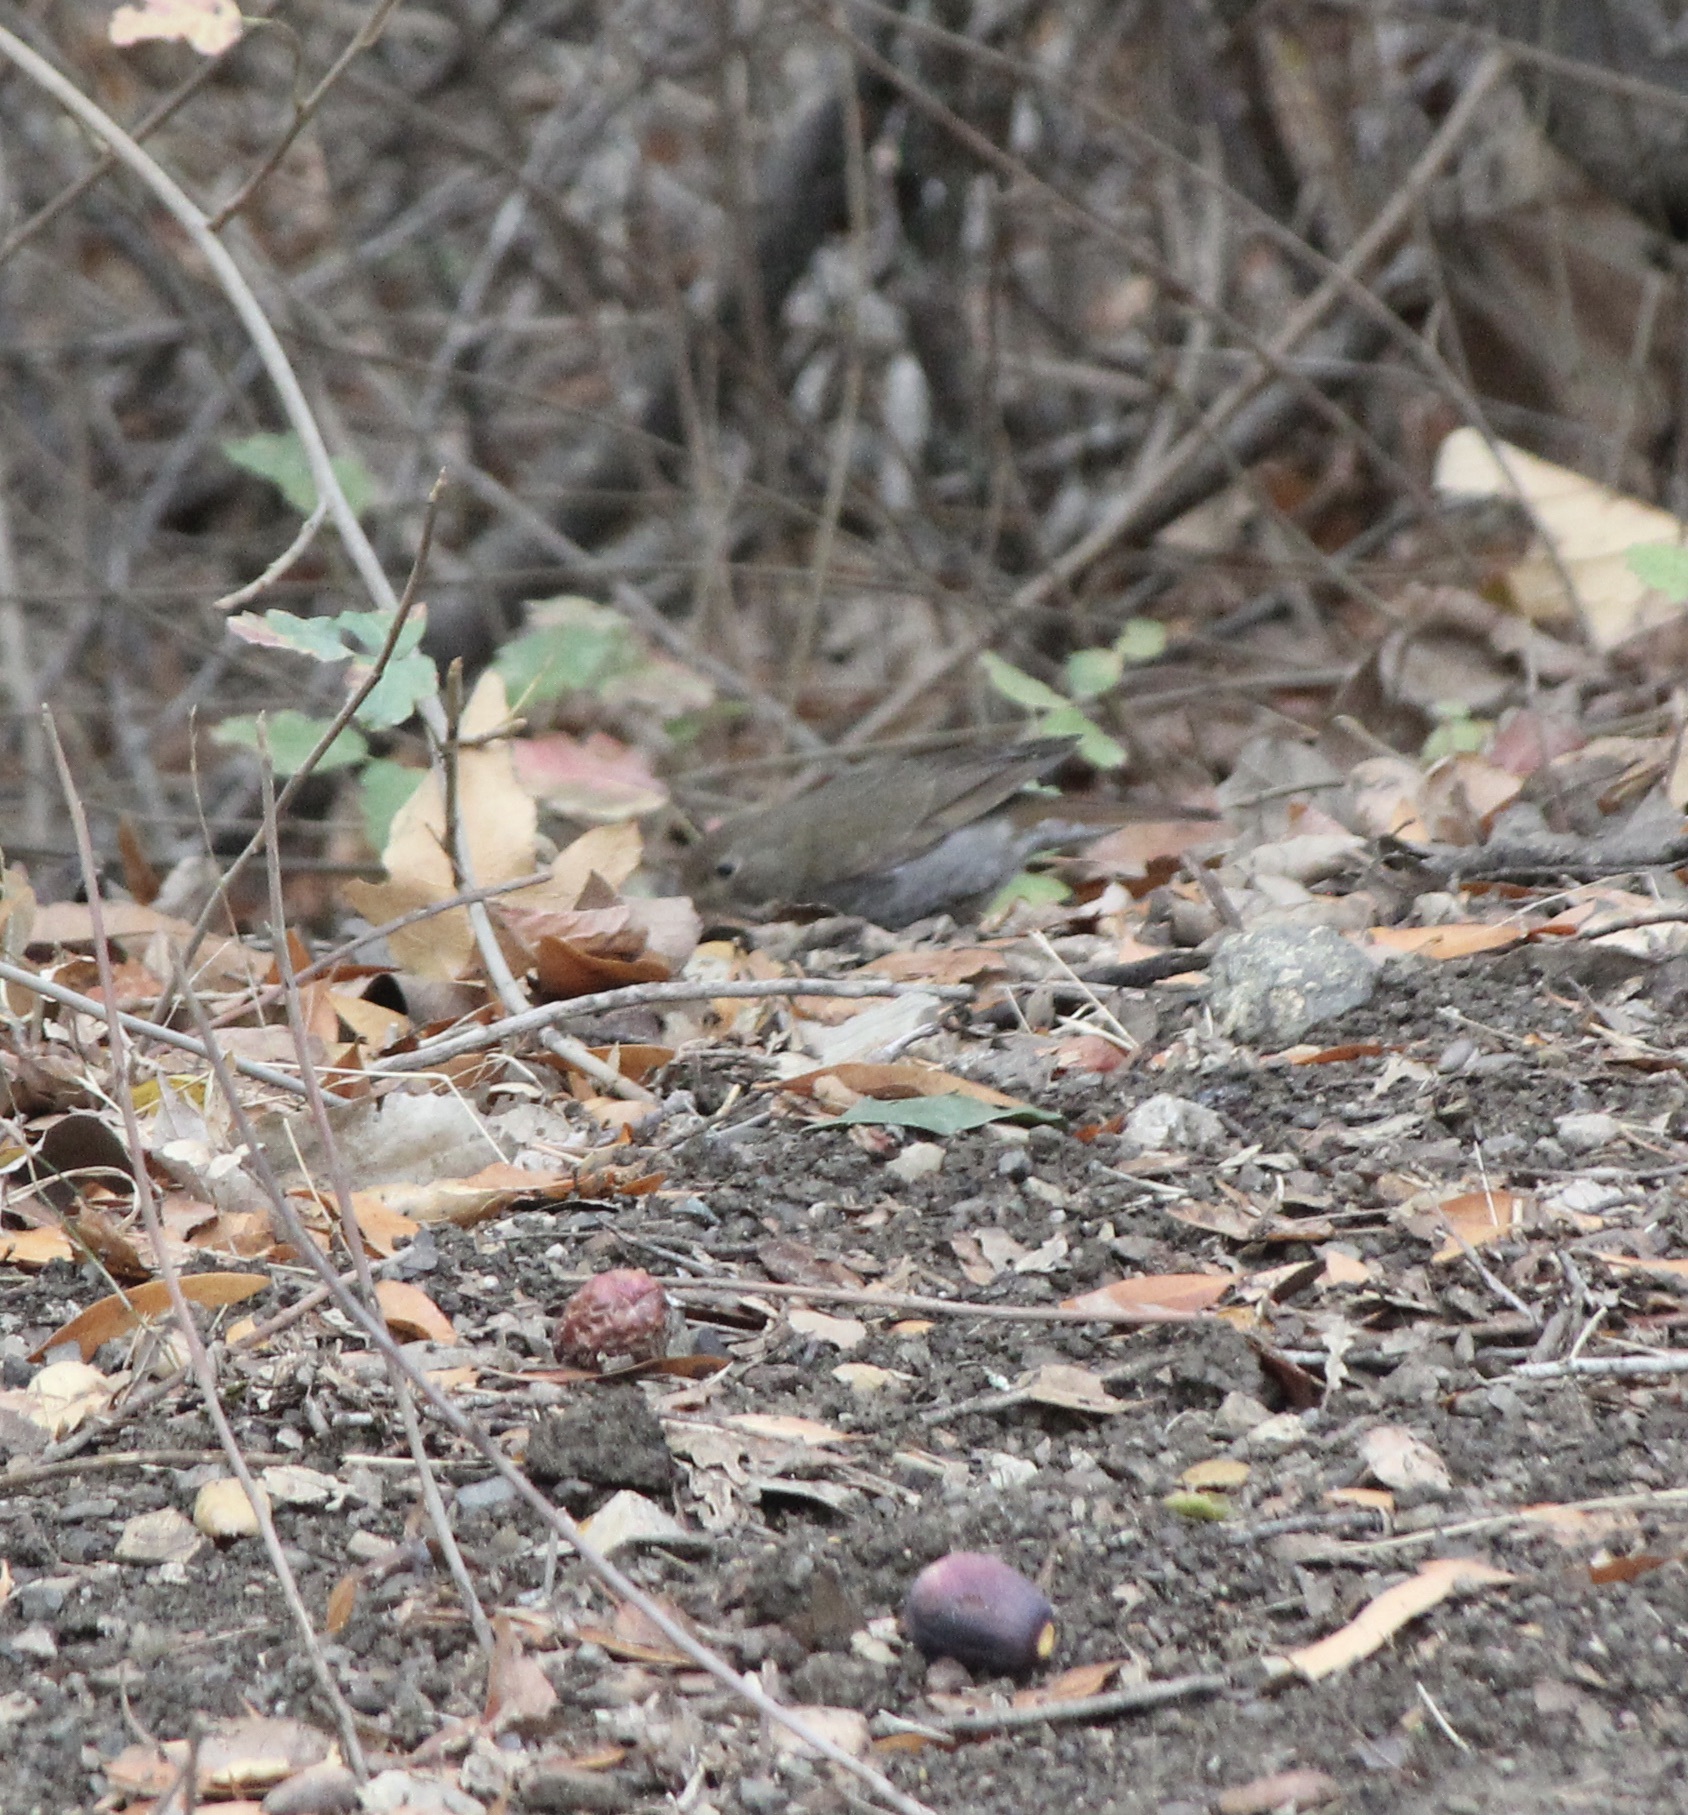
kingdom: Animalia
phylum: Chordata
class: Aves
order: Passeriformes
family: Turdidae
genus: Catharus
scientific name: Catharus guttatus
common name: Hermit thrush
